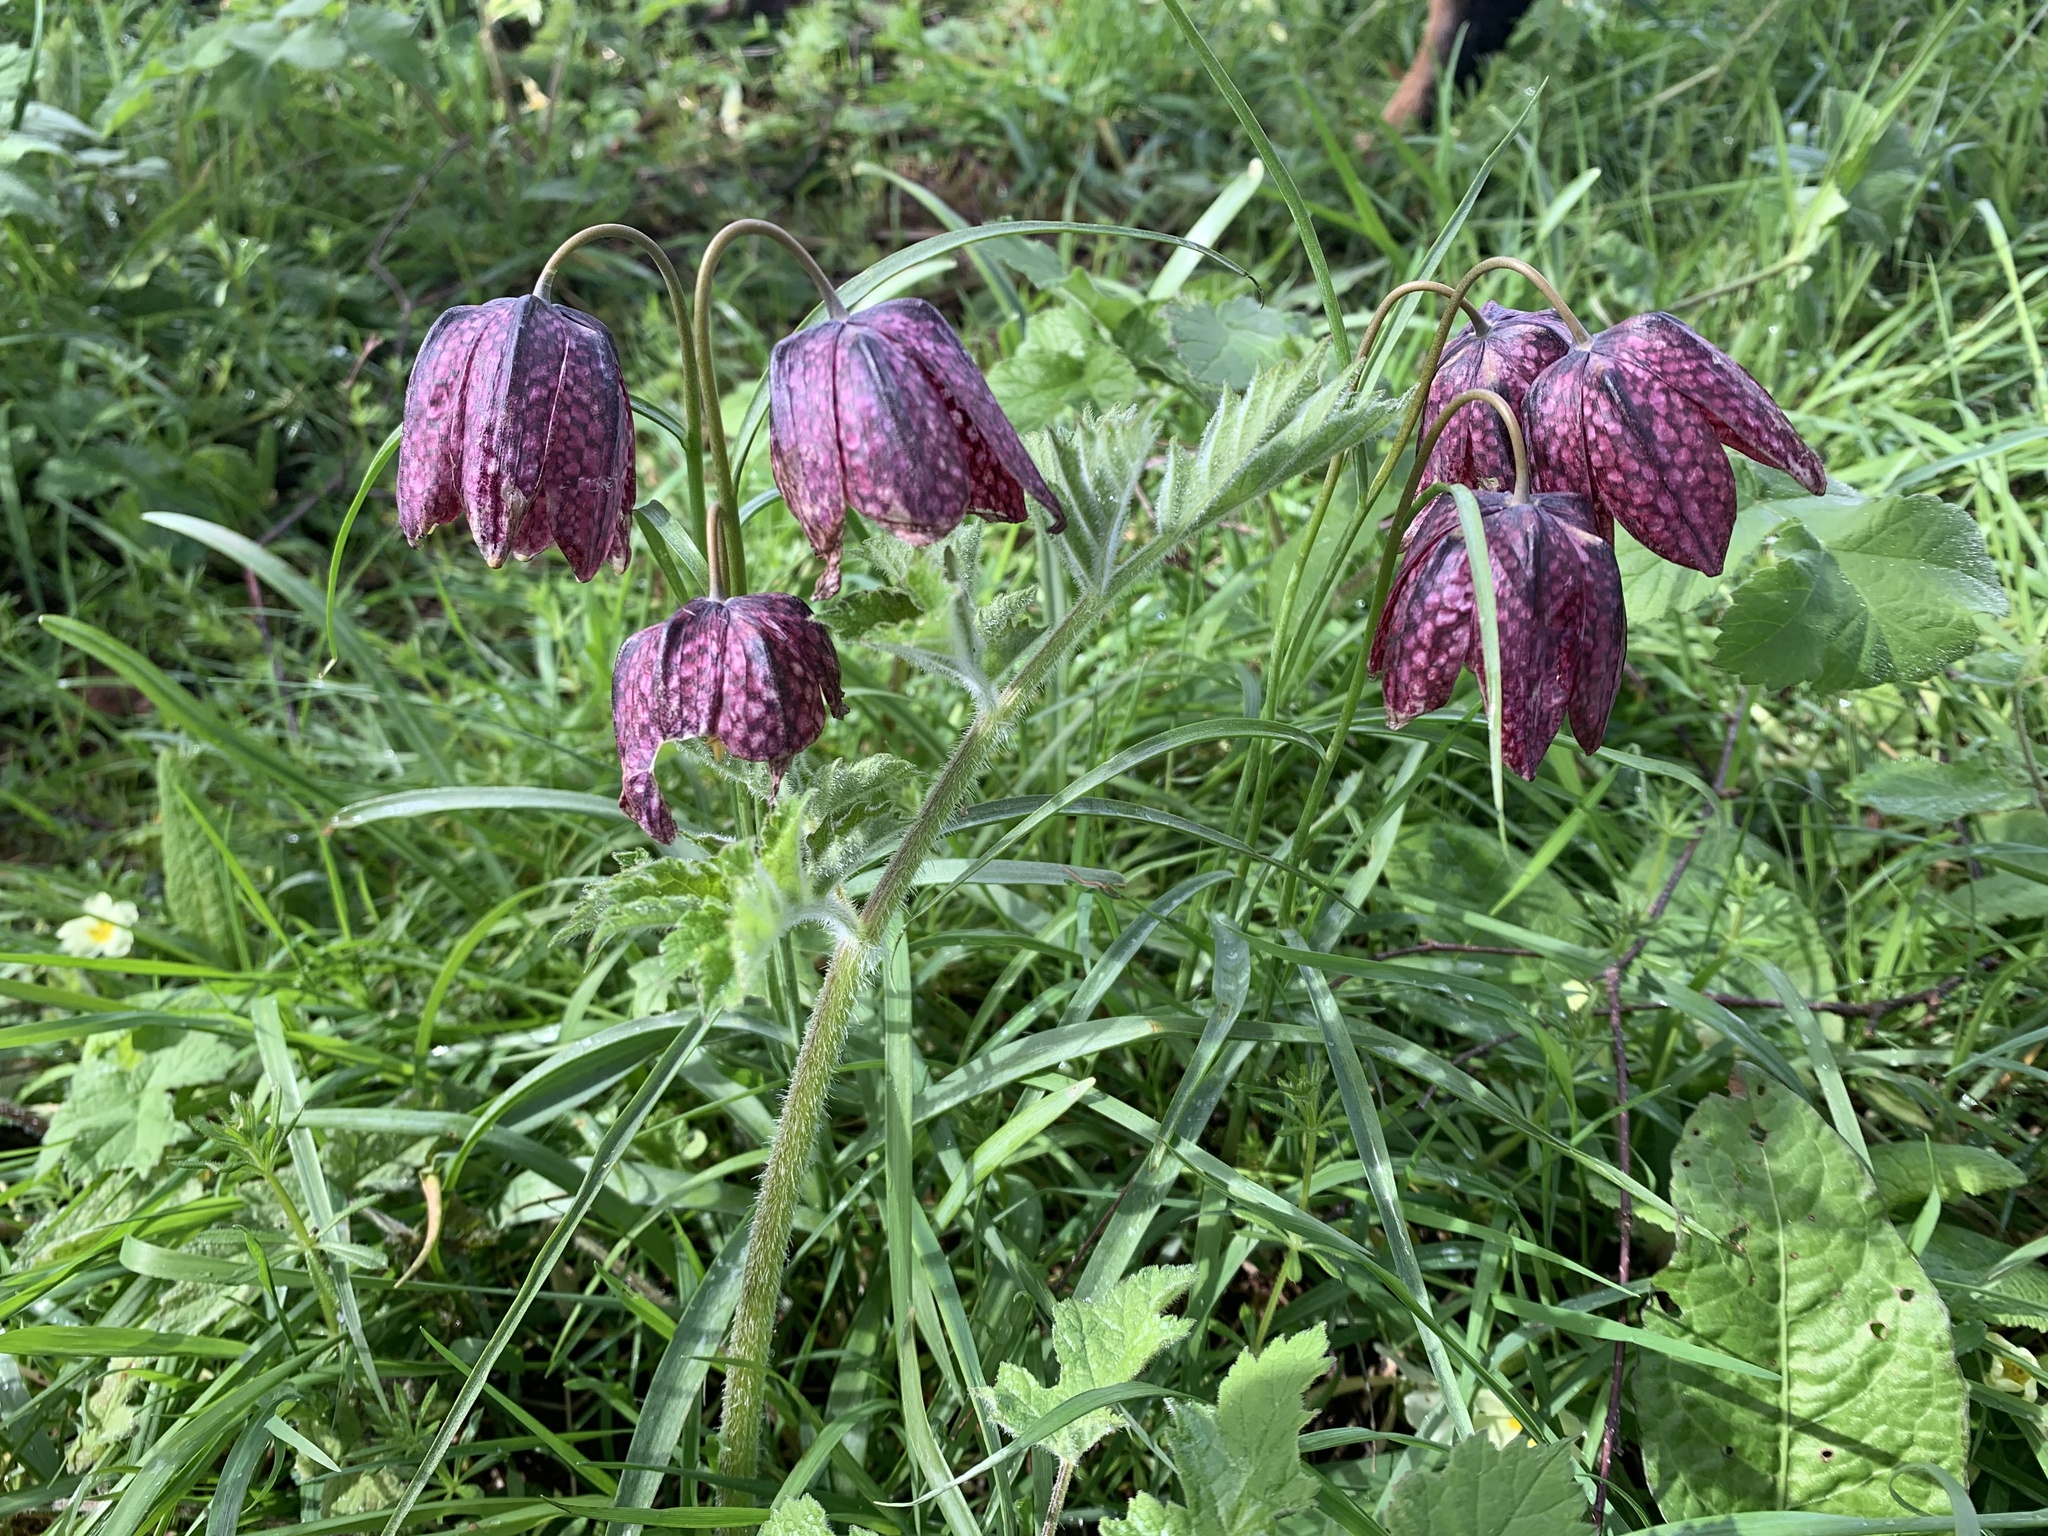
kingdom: Plantae
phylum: Tracheophyta
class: Liliopsida
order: Liliales
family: Liliaceae
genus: Fritillaria
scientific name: Fritillaria meleagris
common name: Fritillary
